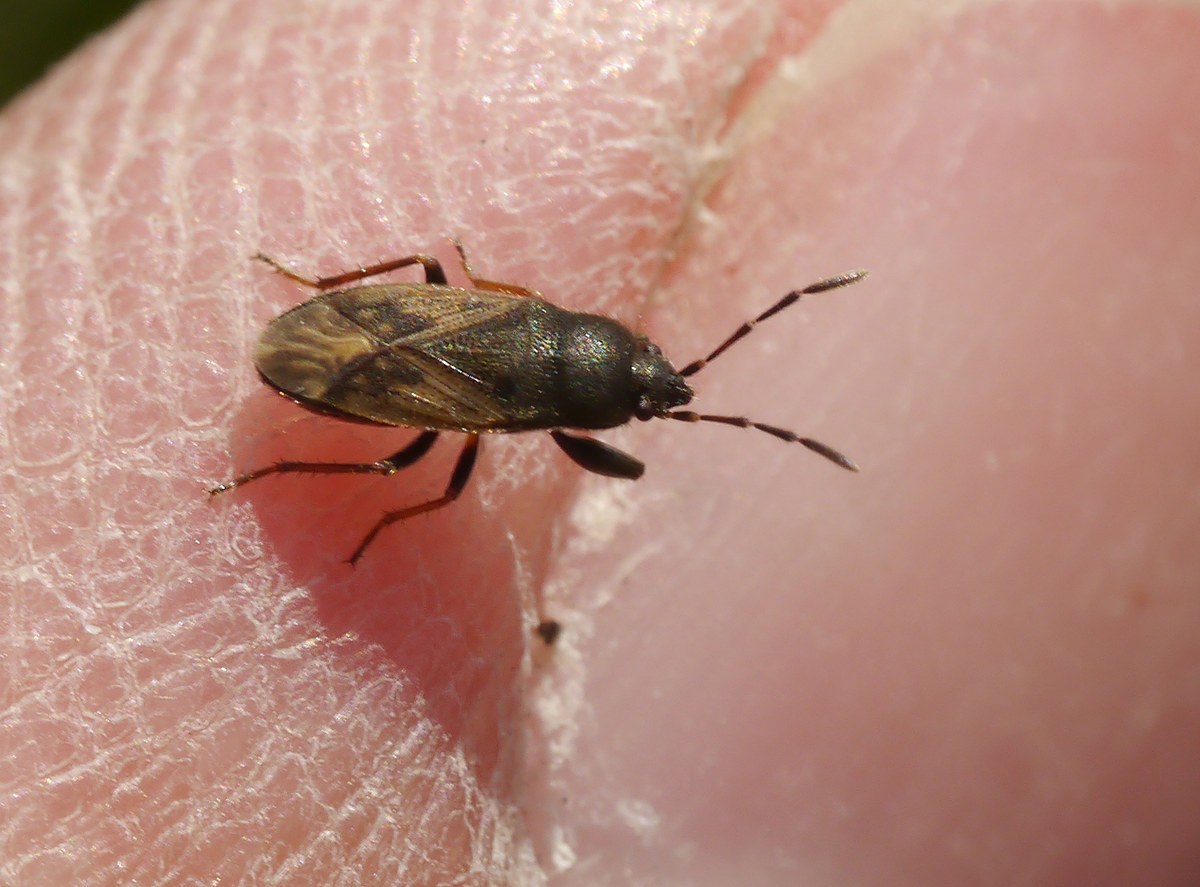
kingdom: Animalia
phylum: Arthropoda
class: Insecta
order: Hemiptera
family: Rhyparochromidae
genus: Megalonotus
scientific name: Megalonotus emarginatus
